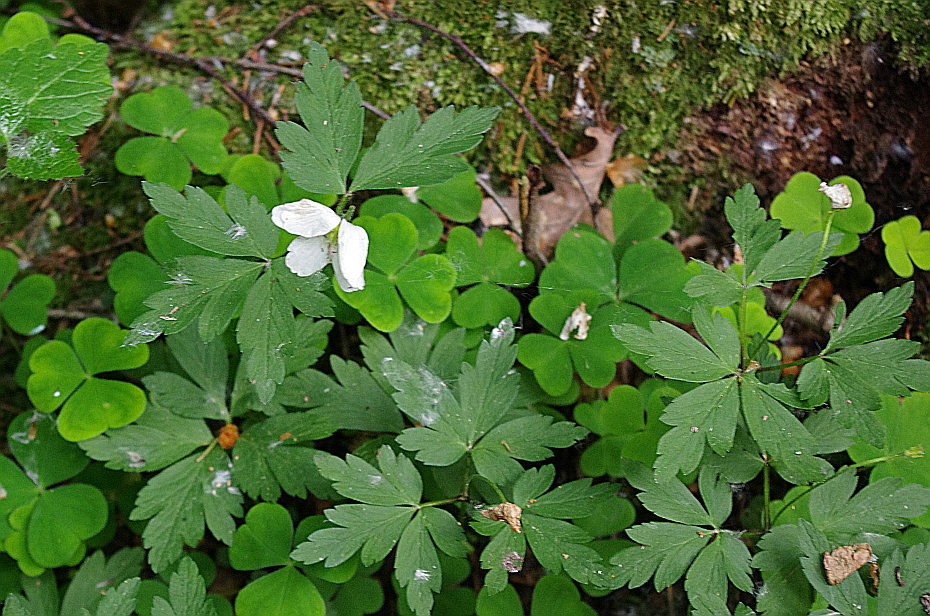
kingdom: Plantae
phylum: Tracheophyta
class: Magnoliopsida
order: Ranunculales
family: Ranunculaceae
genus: Anemone
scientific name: Anemone nemorosa
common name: Wood anemone
